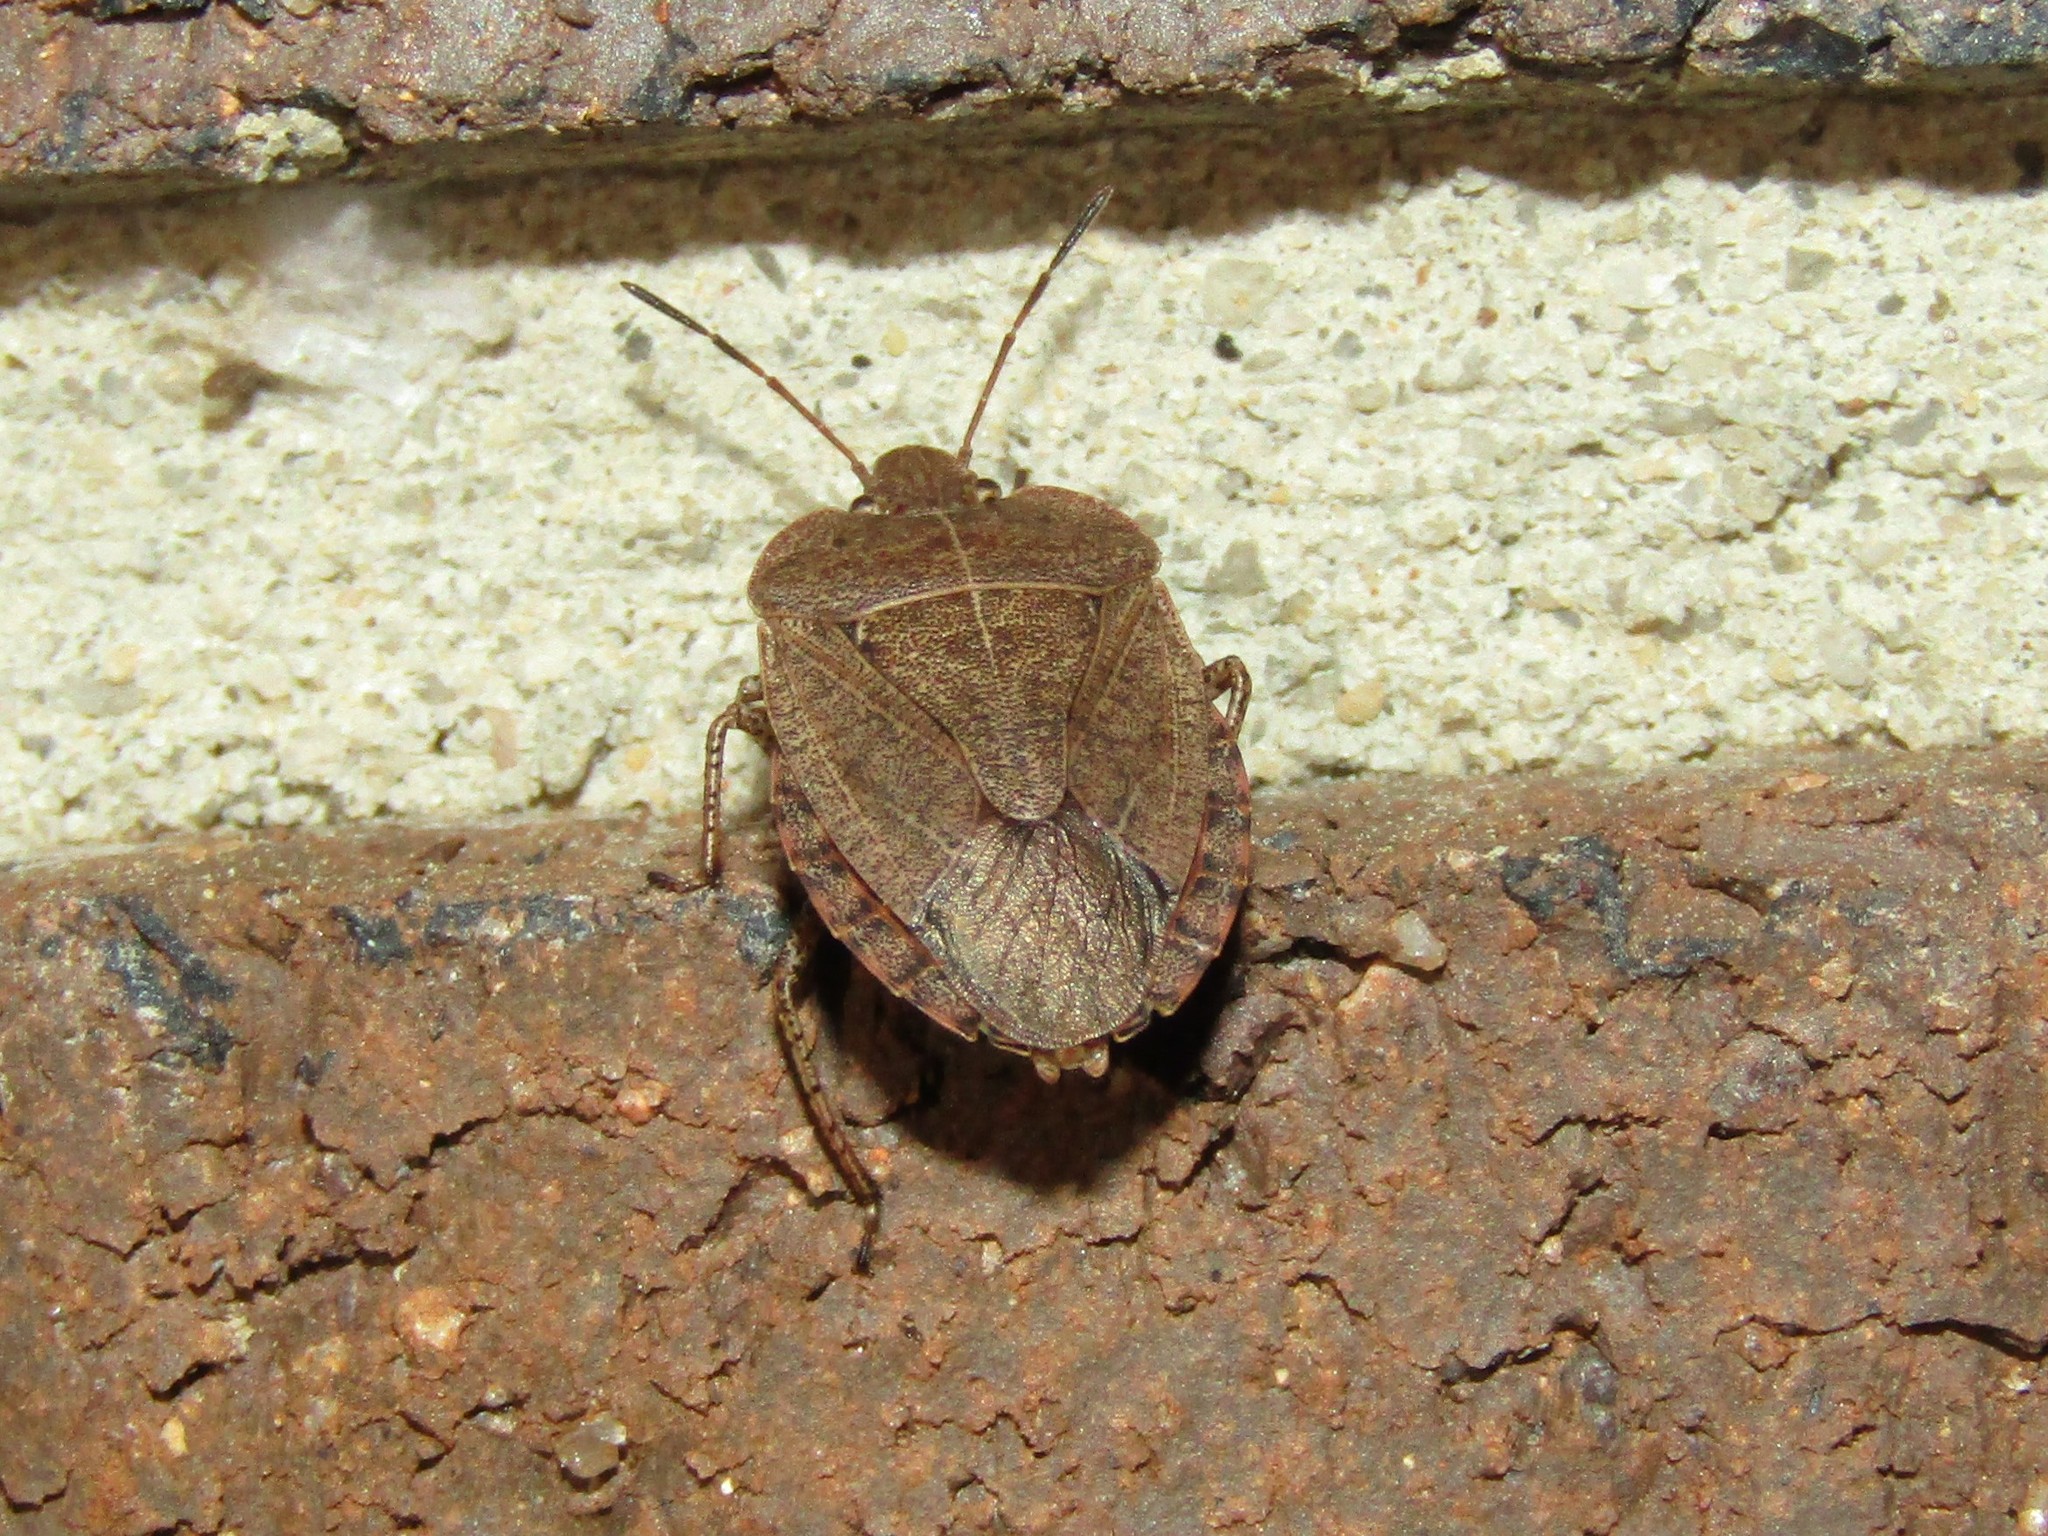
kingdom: Animalia
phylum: Arthropoda
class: Insecta
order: Hemiptera
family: Pentatomidae
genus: Menecles
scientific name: Menecles insertus
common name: Elf shoe stink bug
